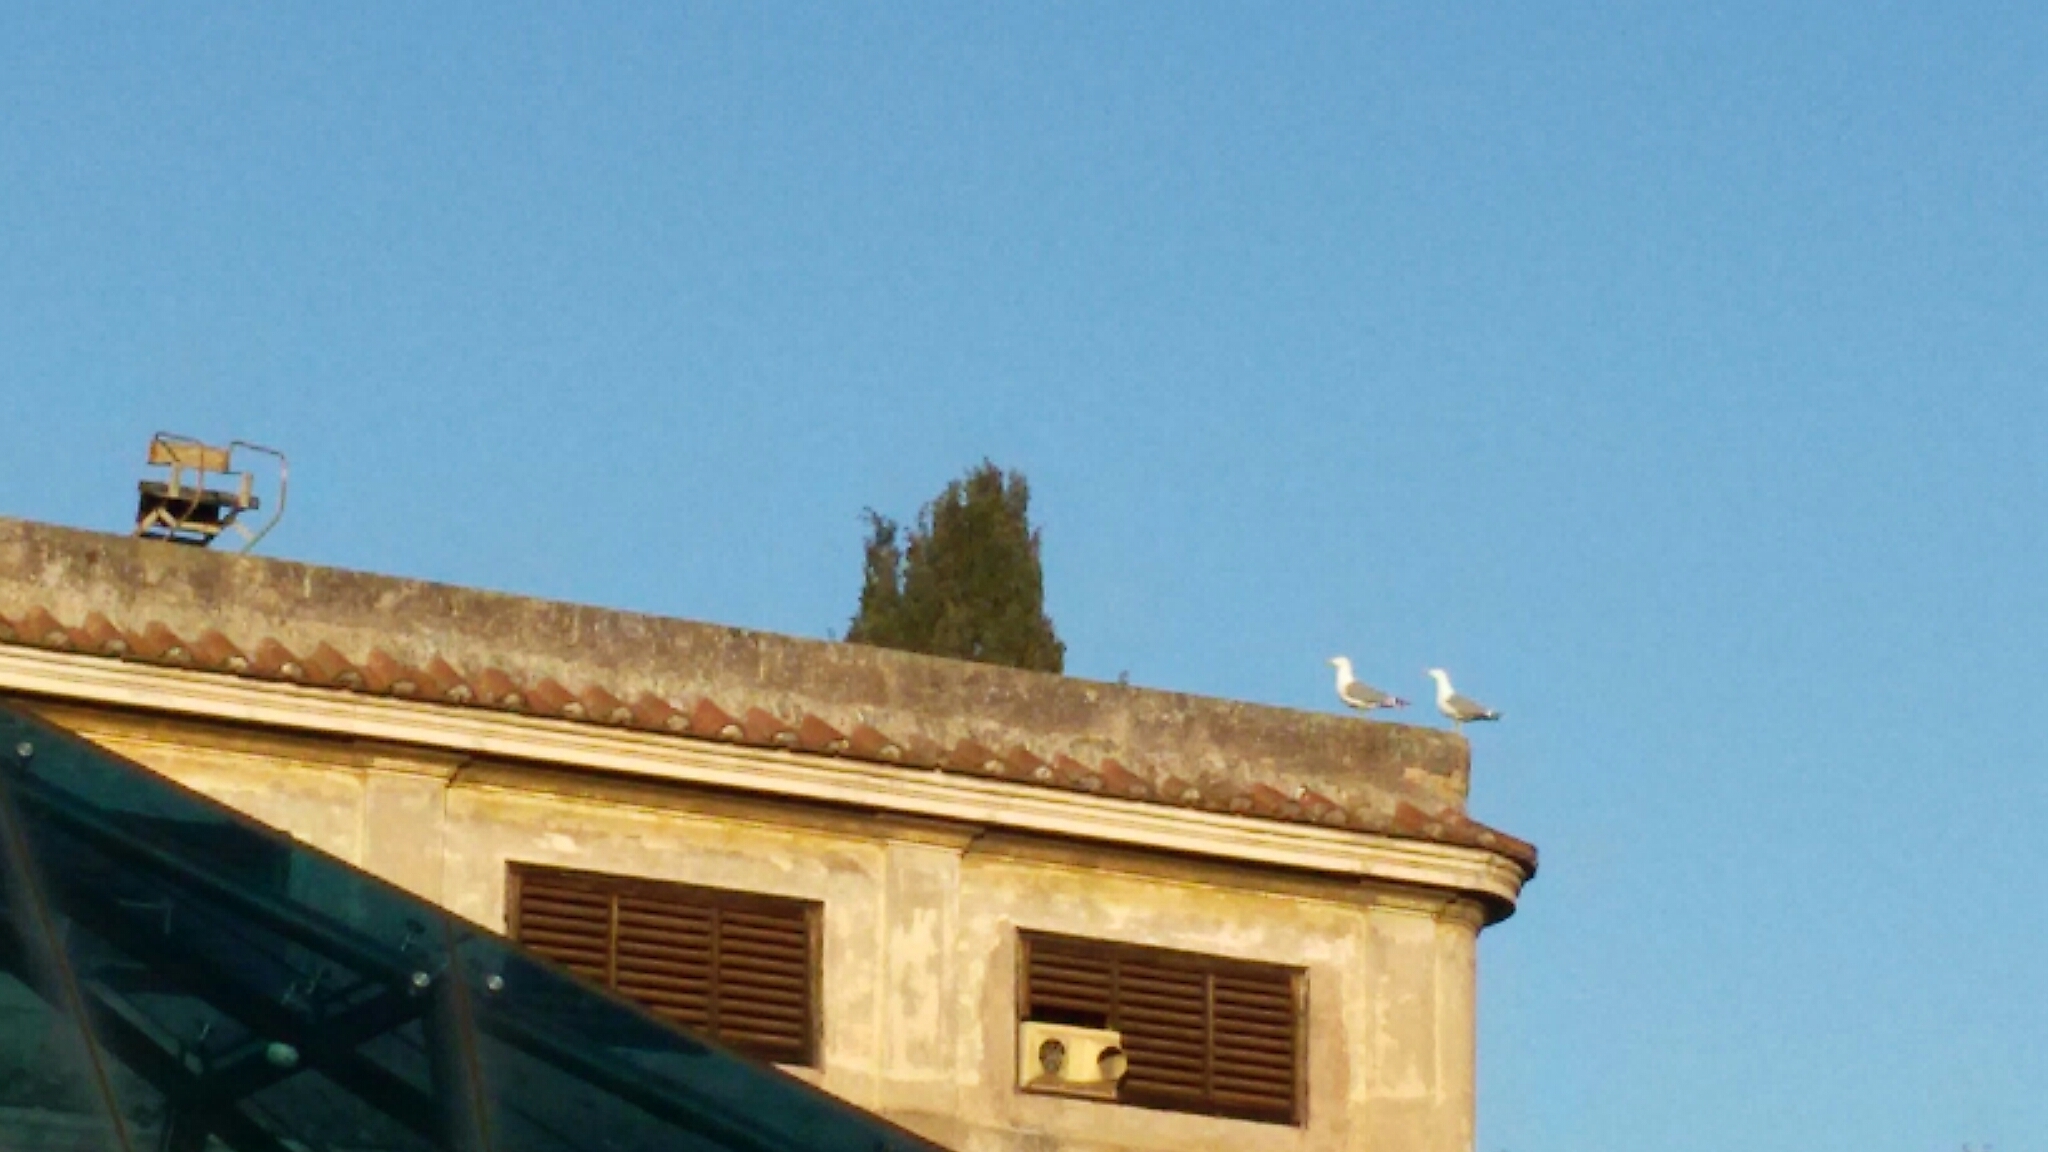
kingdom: Animalia
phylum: Chordata
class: Aves
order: Charadriiformes
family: Laridae
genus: Larus
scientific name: Larus michahellis
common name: Yellow-legged gull
